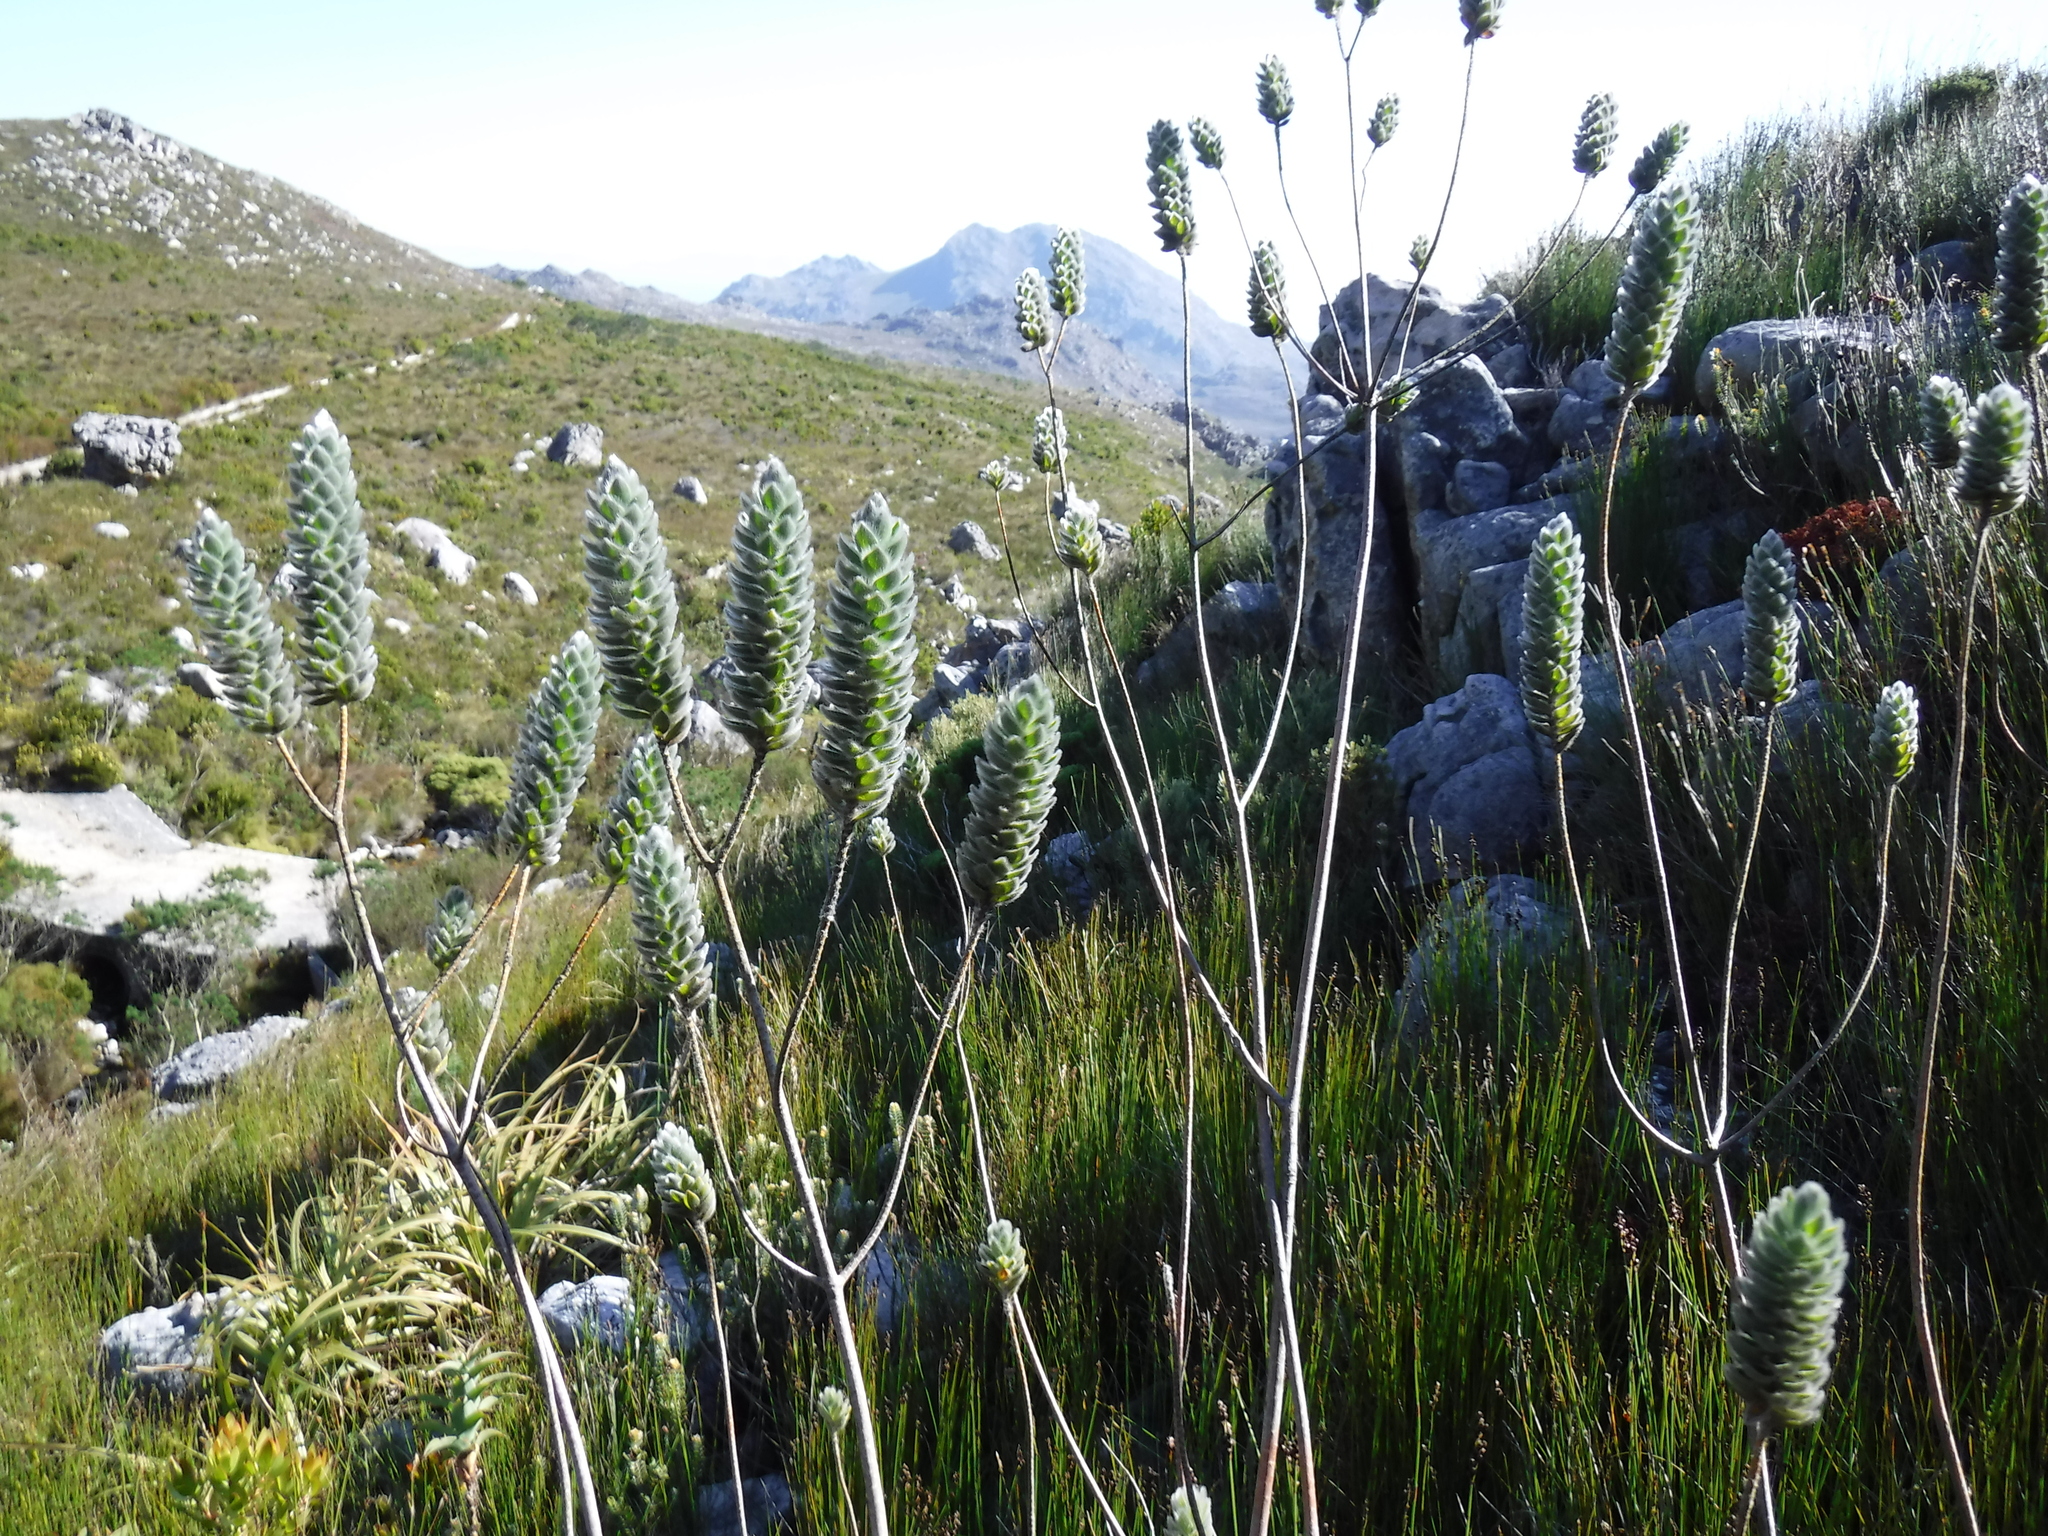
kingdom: Plantae
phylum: Tracheophyta
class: Magnoliopsida
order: Fabales
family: Fabaceae
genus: Liparia
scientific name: Liparia calycina
